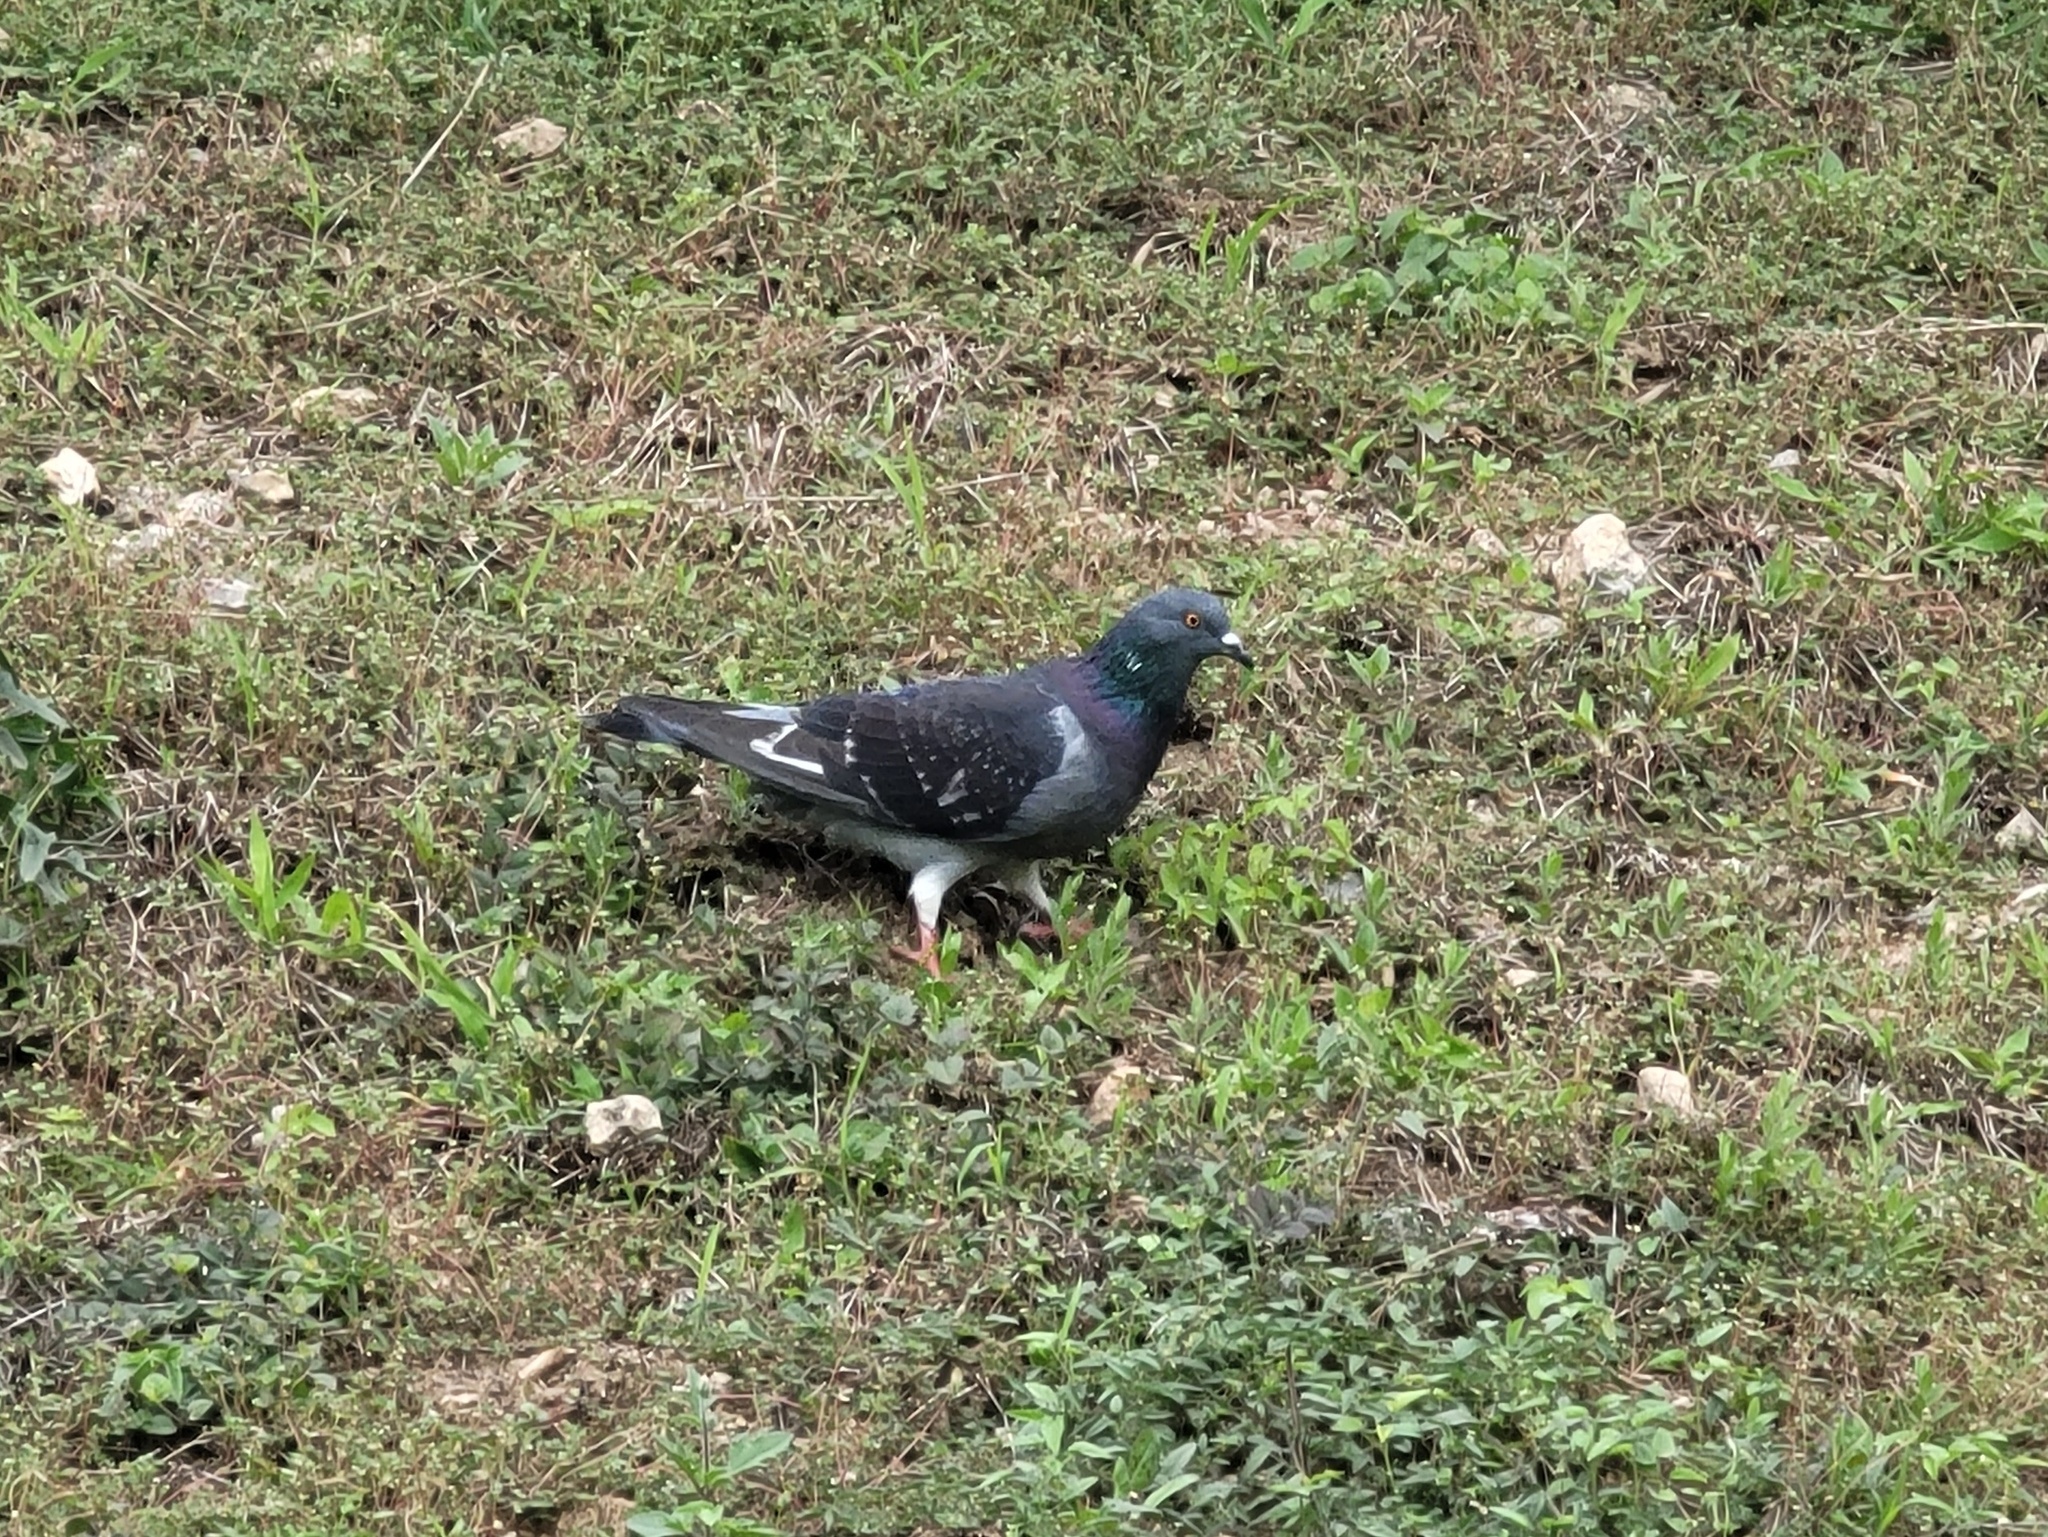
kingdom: Animalia
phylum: Chordata
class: Aves
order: Columbiformes
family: Columbidae
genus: Columba
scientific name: Columba livia
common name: Rock pigeon
